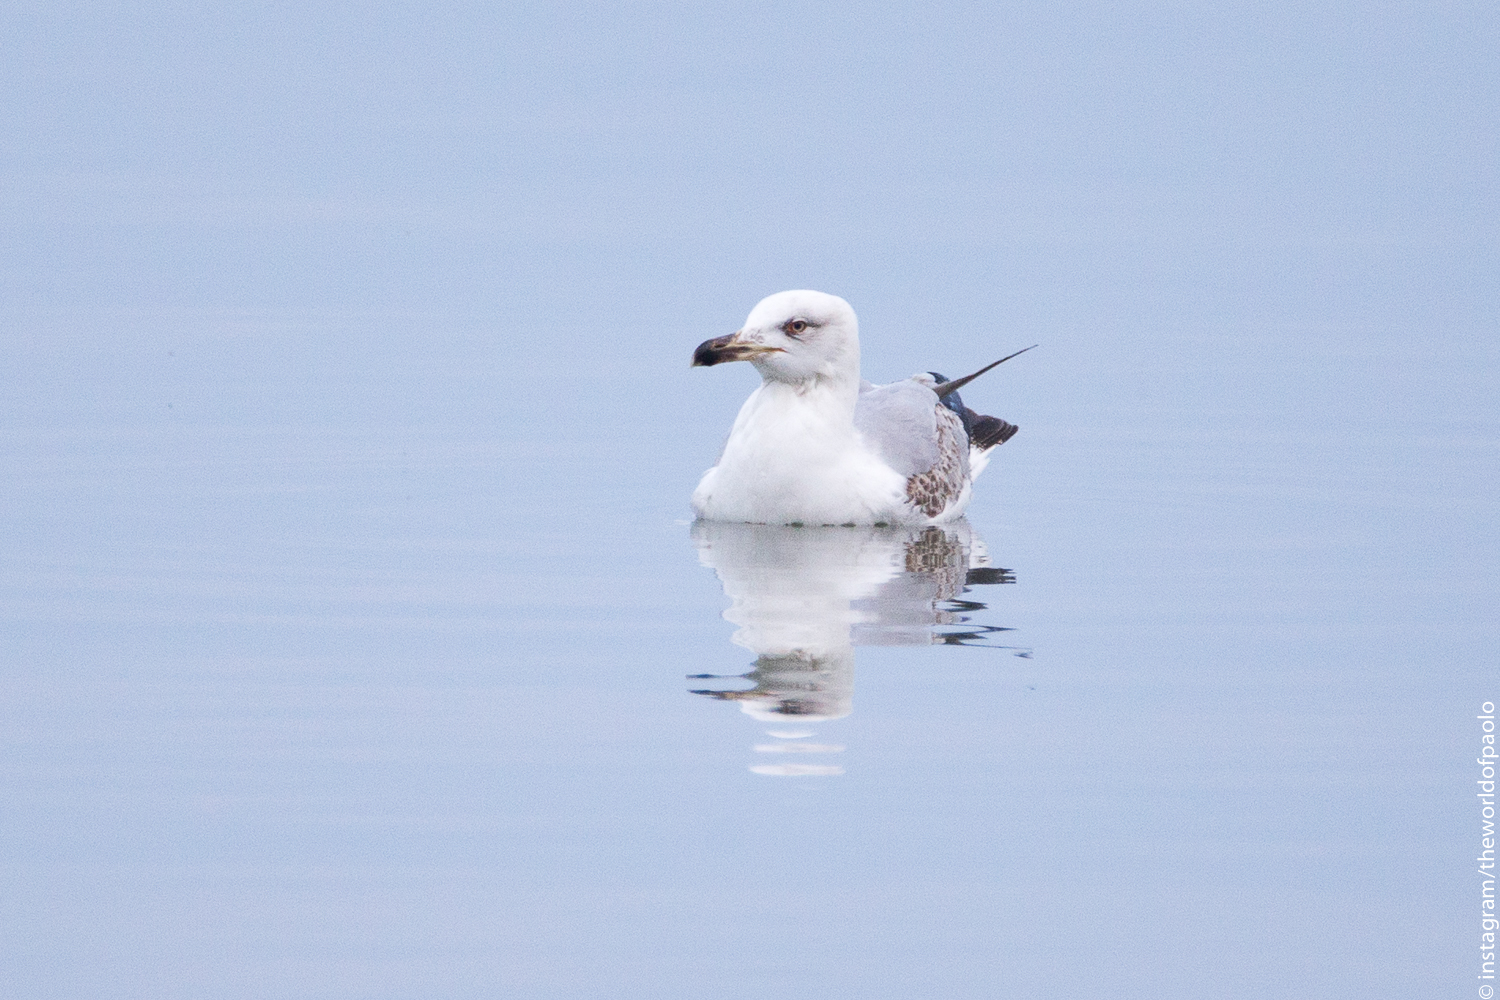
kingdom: Animalia
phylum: Chordata
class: Aves
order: Charadriiformes
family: Laridae
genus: Larus
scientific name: Larus michahellis
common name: Yellow-legged gull
